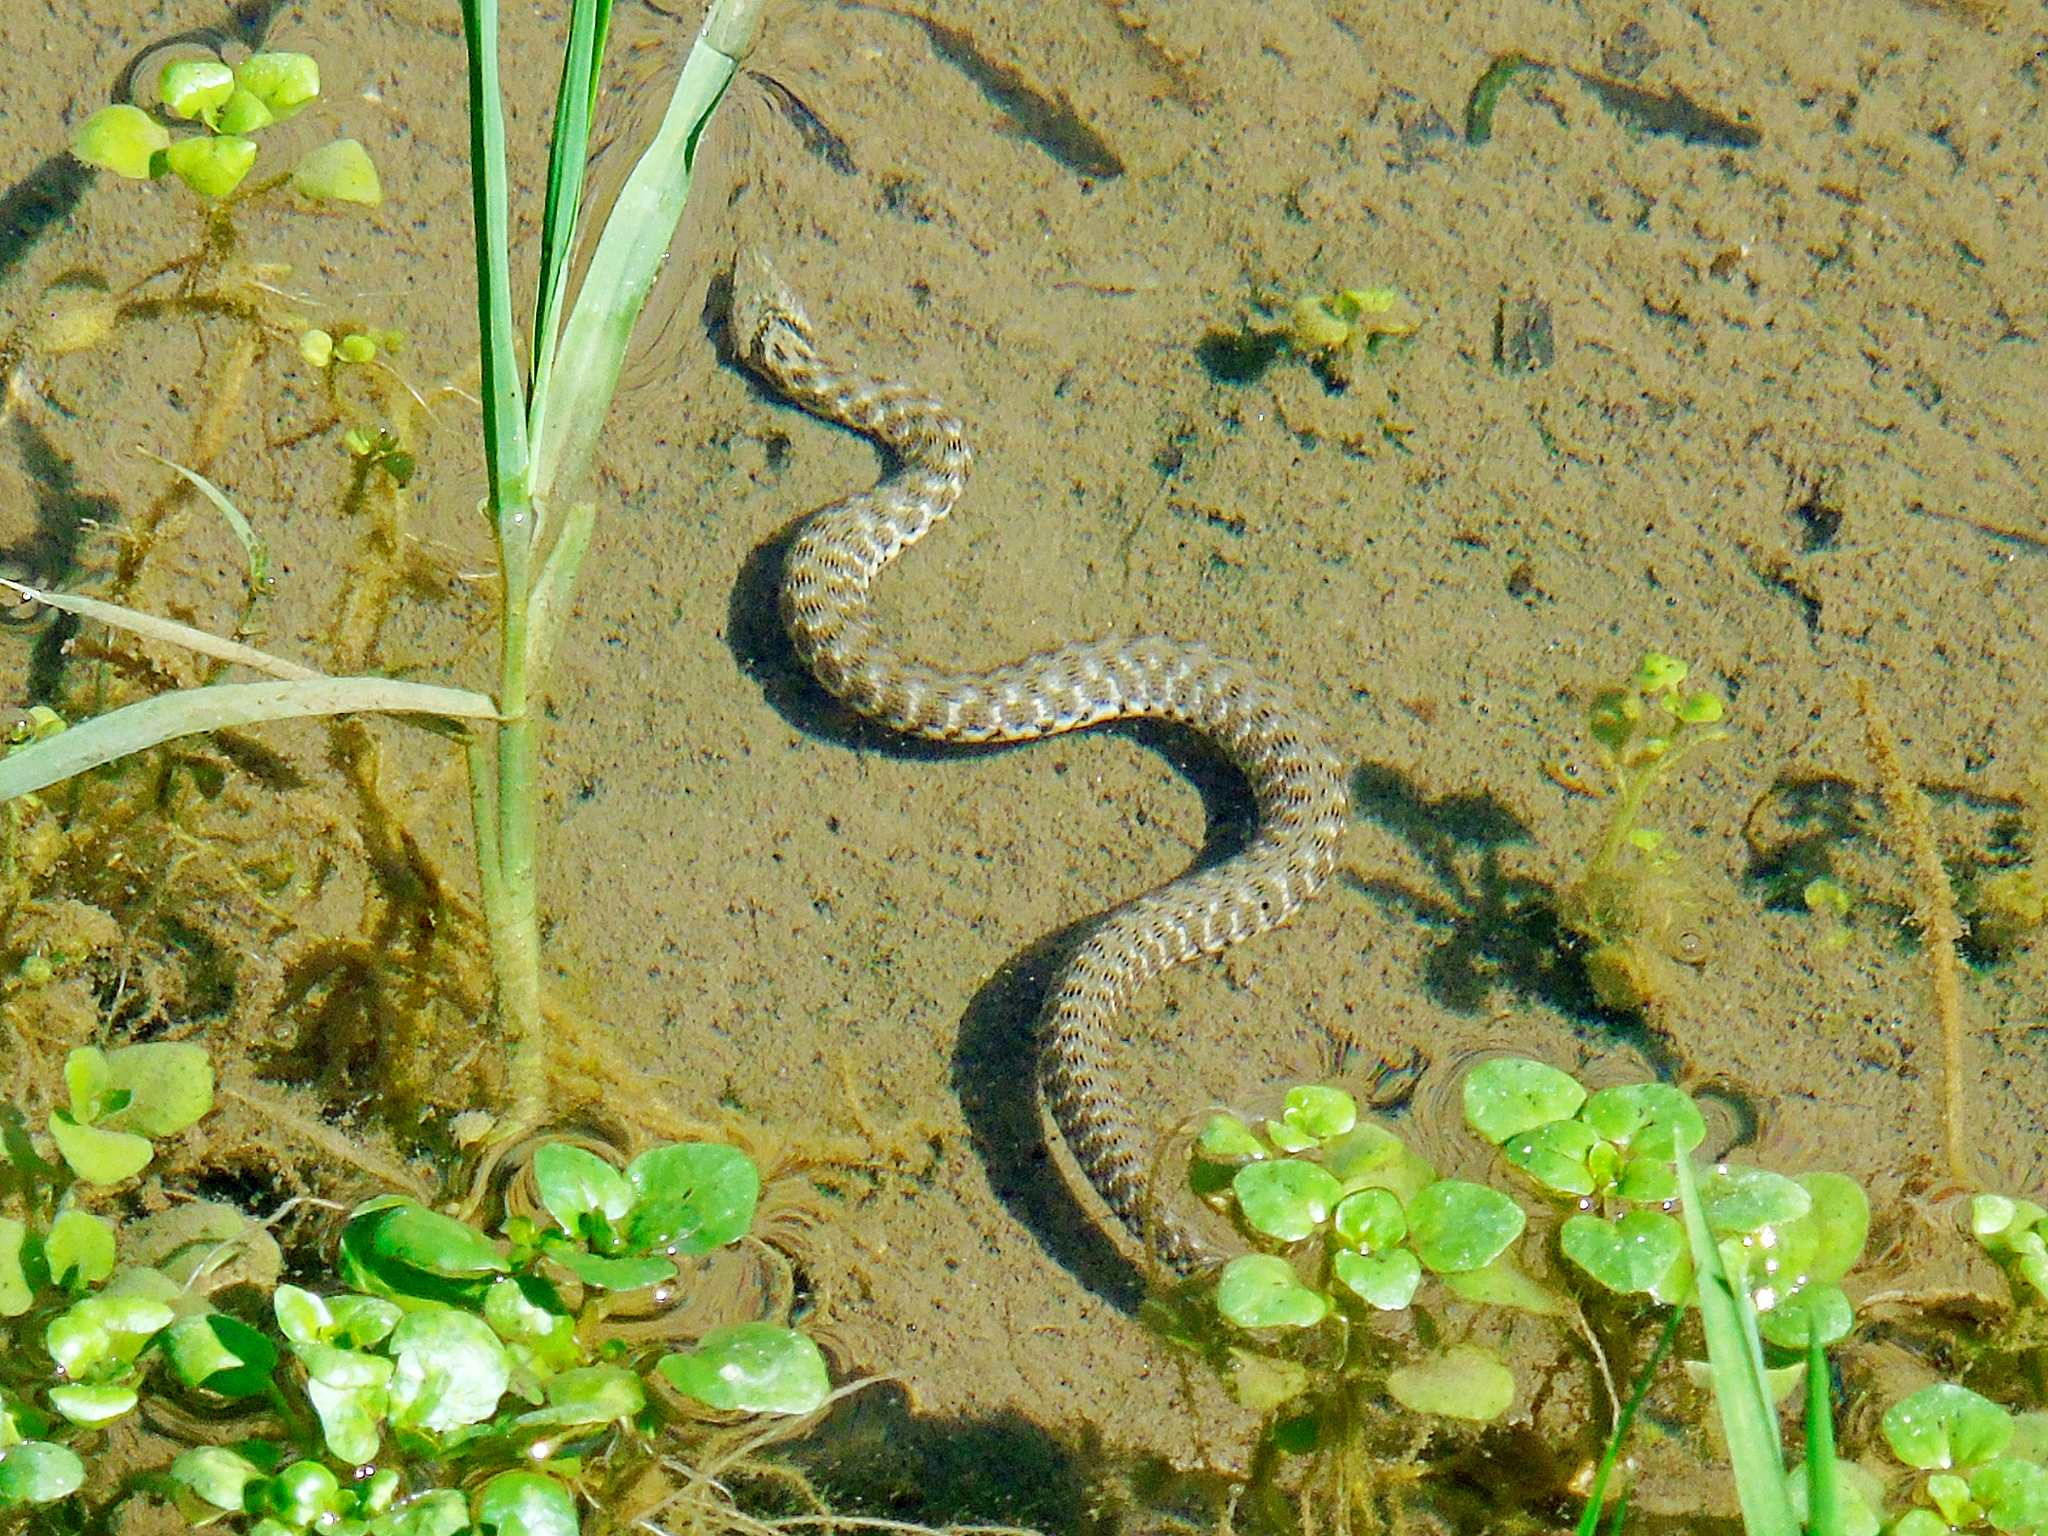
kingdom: Animalia
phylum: Chordata
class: Squamata
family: Colubridae
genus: Natrix
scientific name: Natrix tessellata
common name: Dice snake
